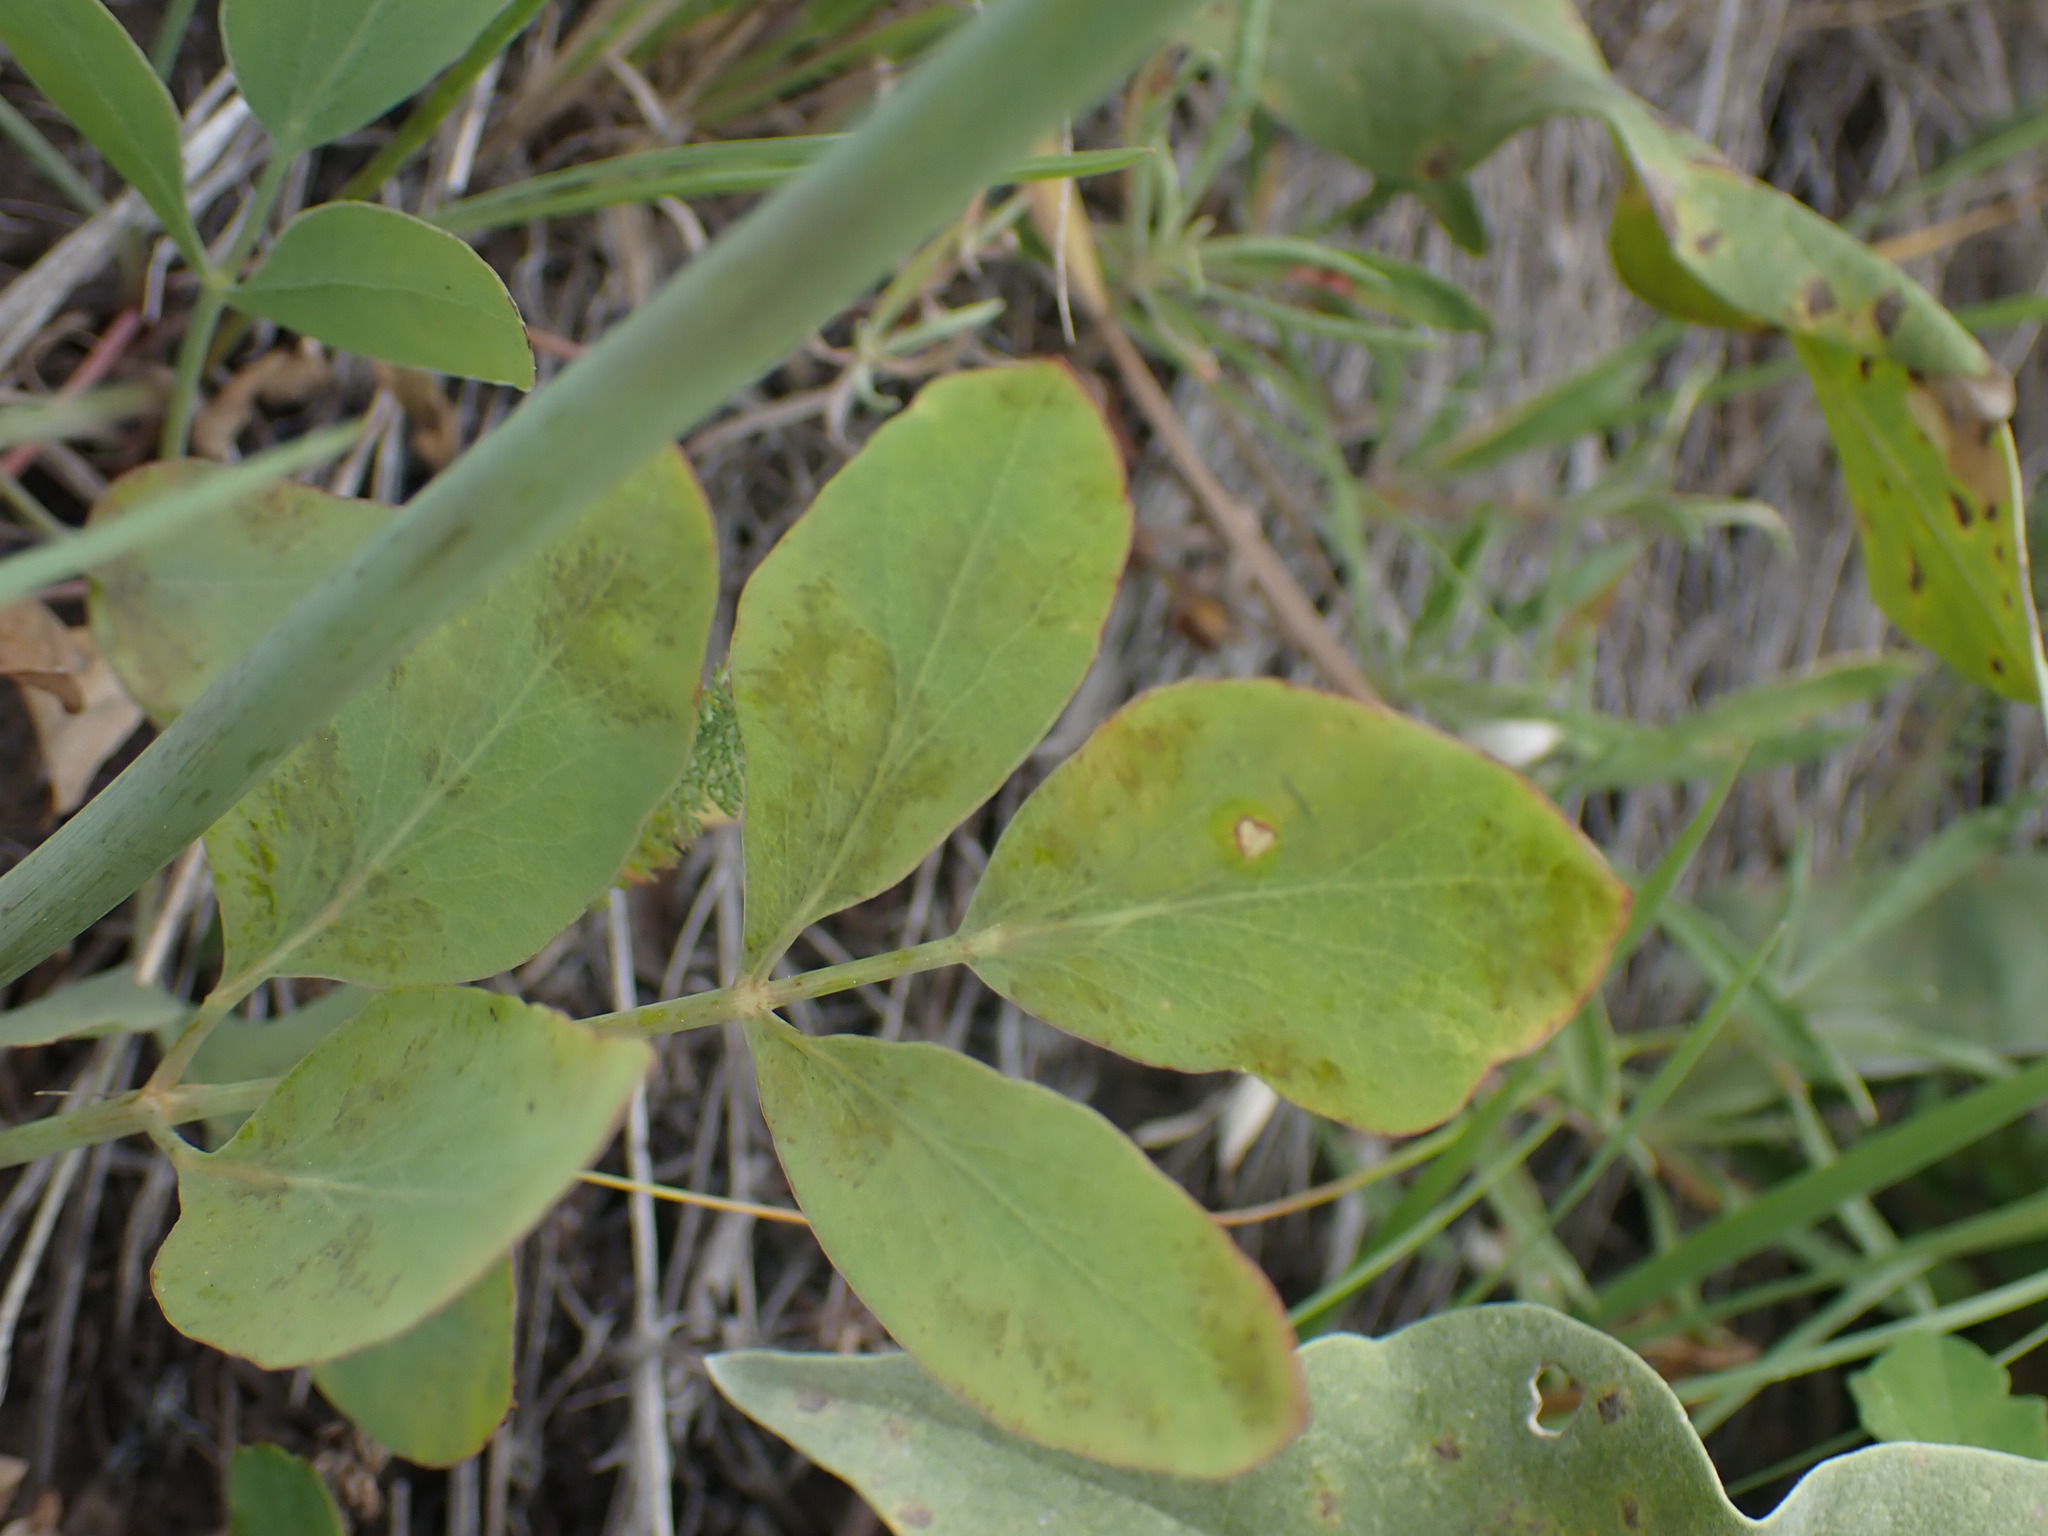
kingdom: Plantae
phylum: Tracheophyta
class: Magnoliopsida
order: Apiales
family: Apiaceae
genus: Lomatium
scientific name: Lomatium nudicaule
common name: Pestle lomatium
